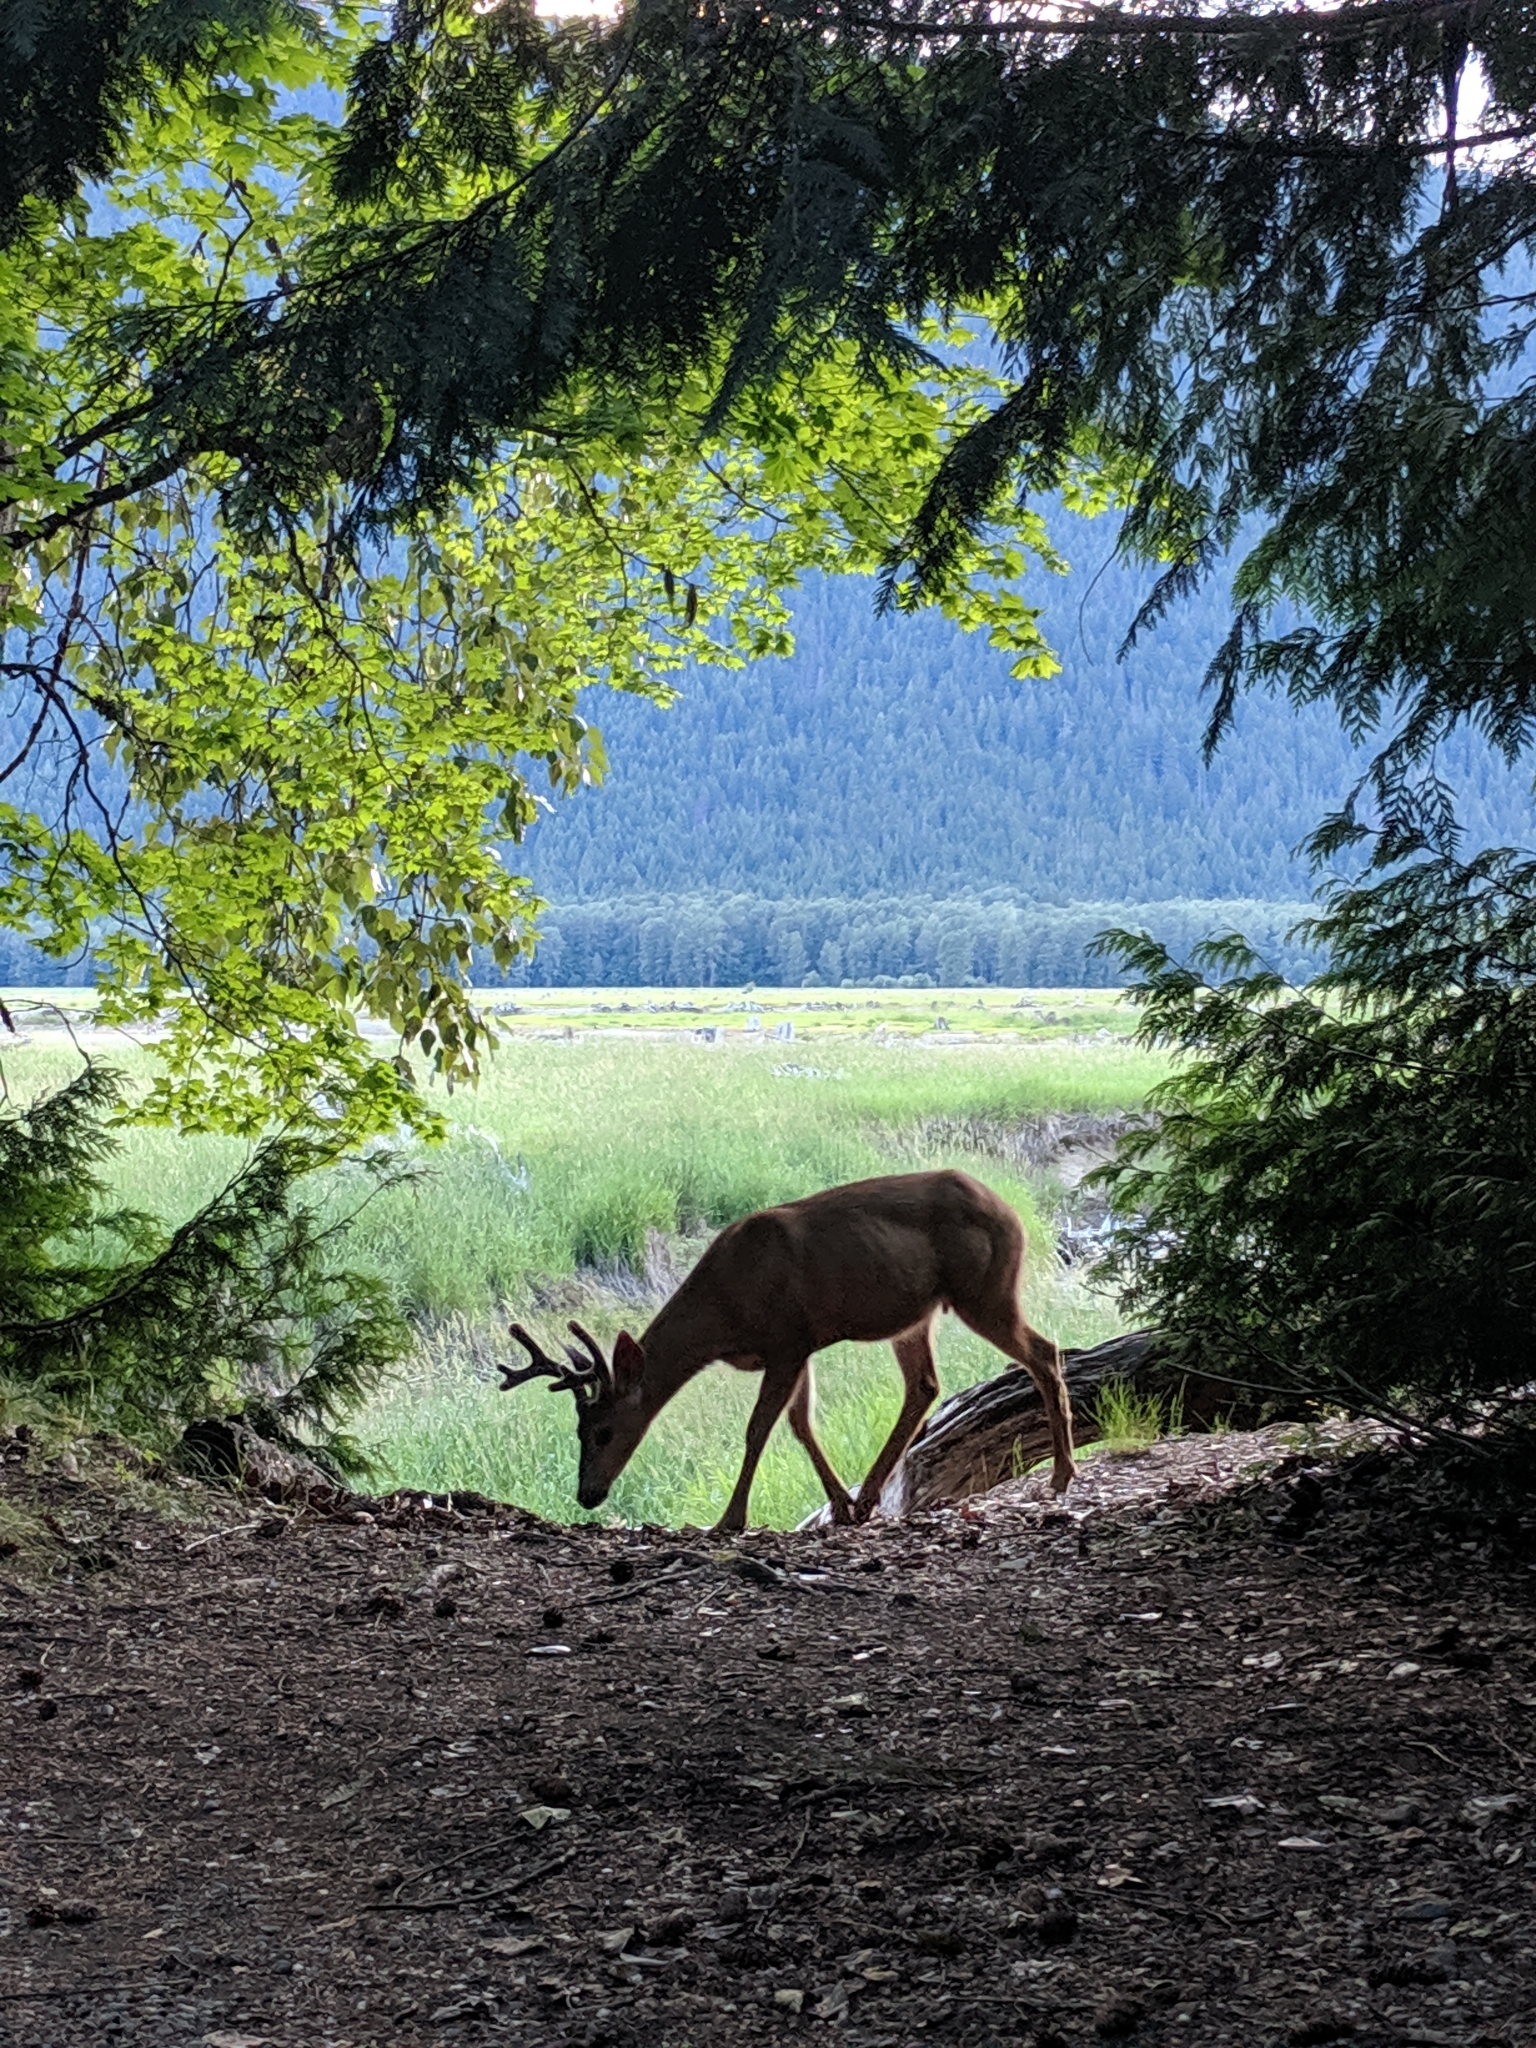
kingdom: Animalia
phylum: Chordata
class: Mammalia
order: Artiodactyla
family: Cervidae
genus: Odocoileus
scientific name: Odocoileus hemionus
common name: Mule deer
